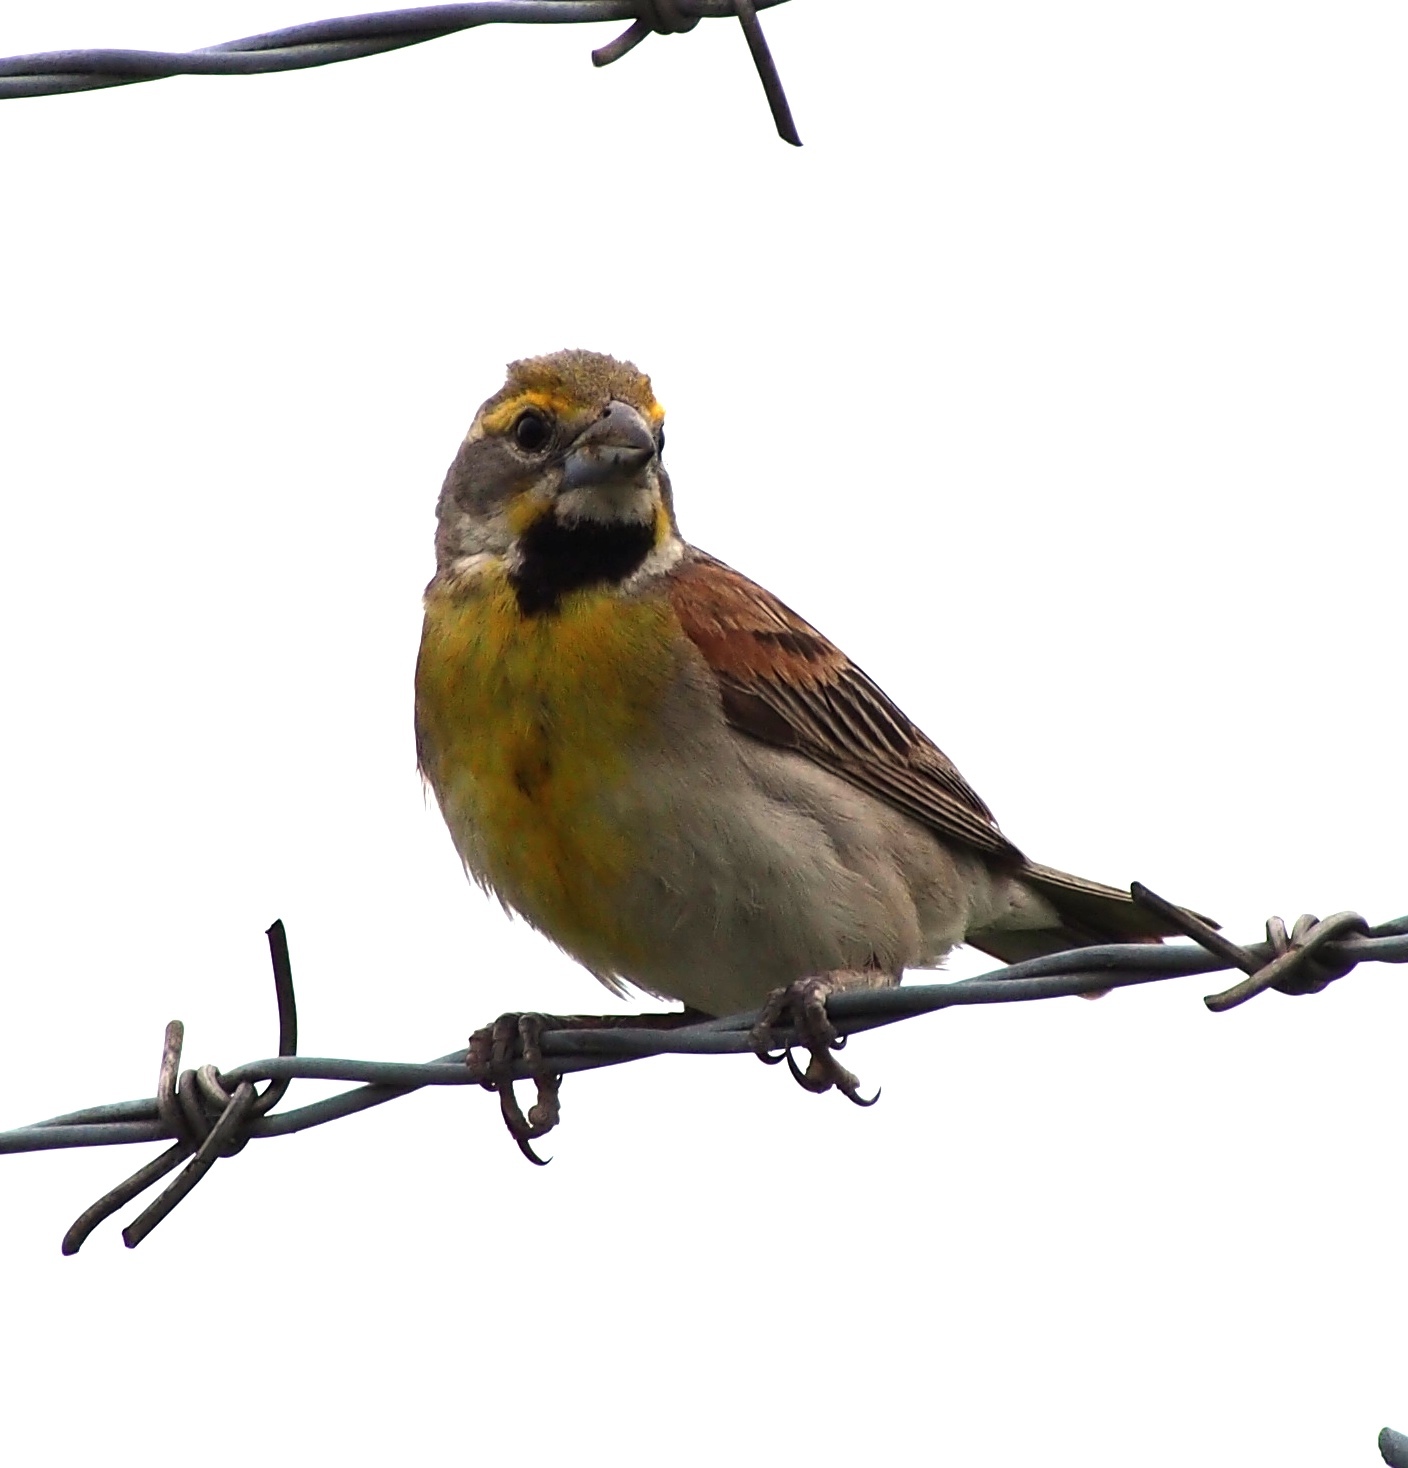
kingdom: Animalia
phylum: Chordata
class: Aves
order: Passeriformes
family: Cardinalidae
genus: Spiza
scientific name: Spiza americana
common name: Dickcissel
